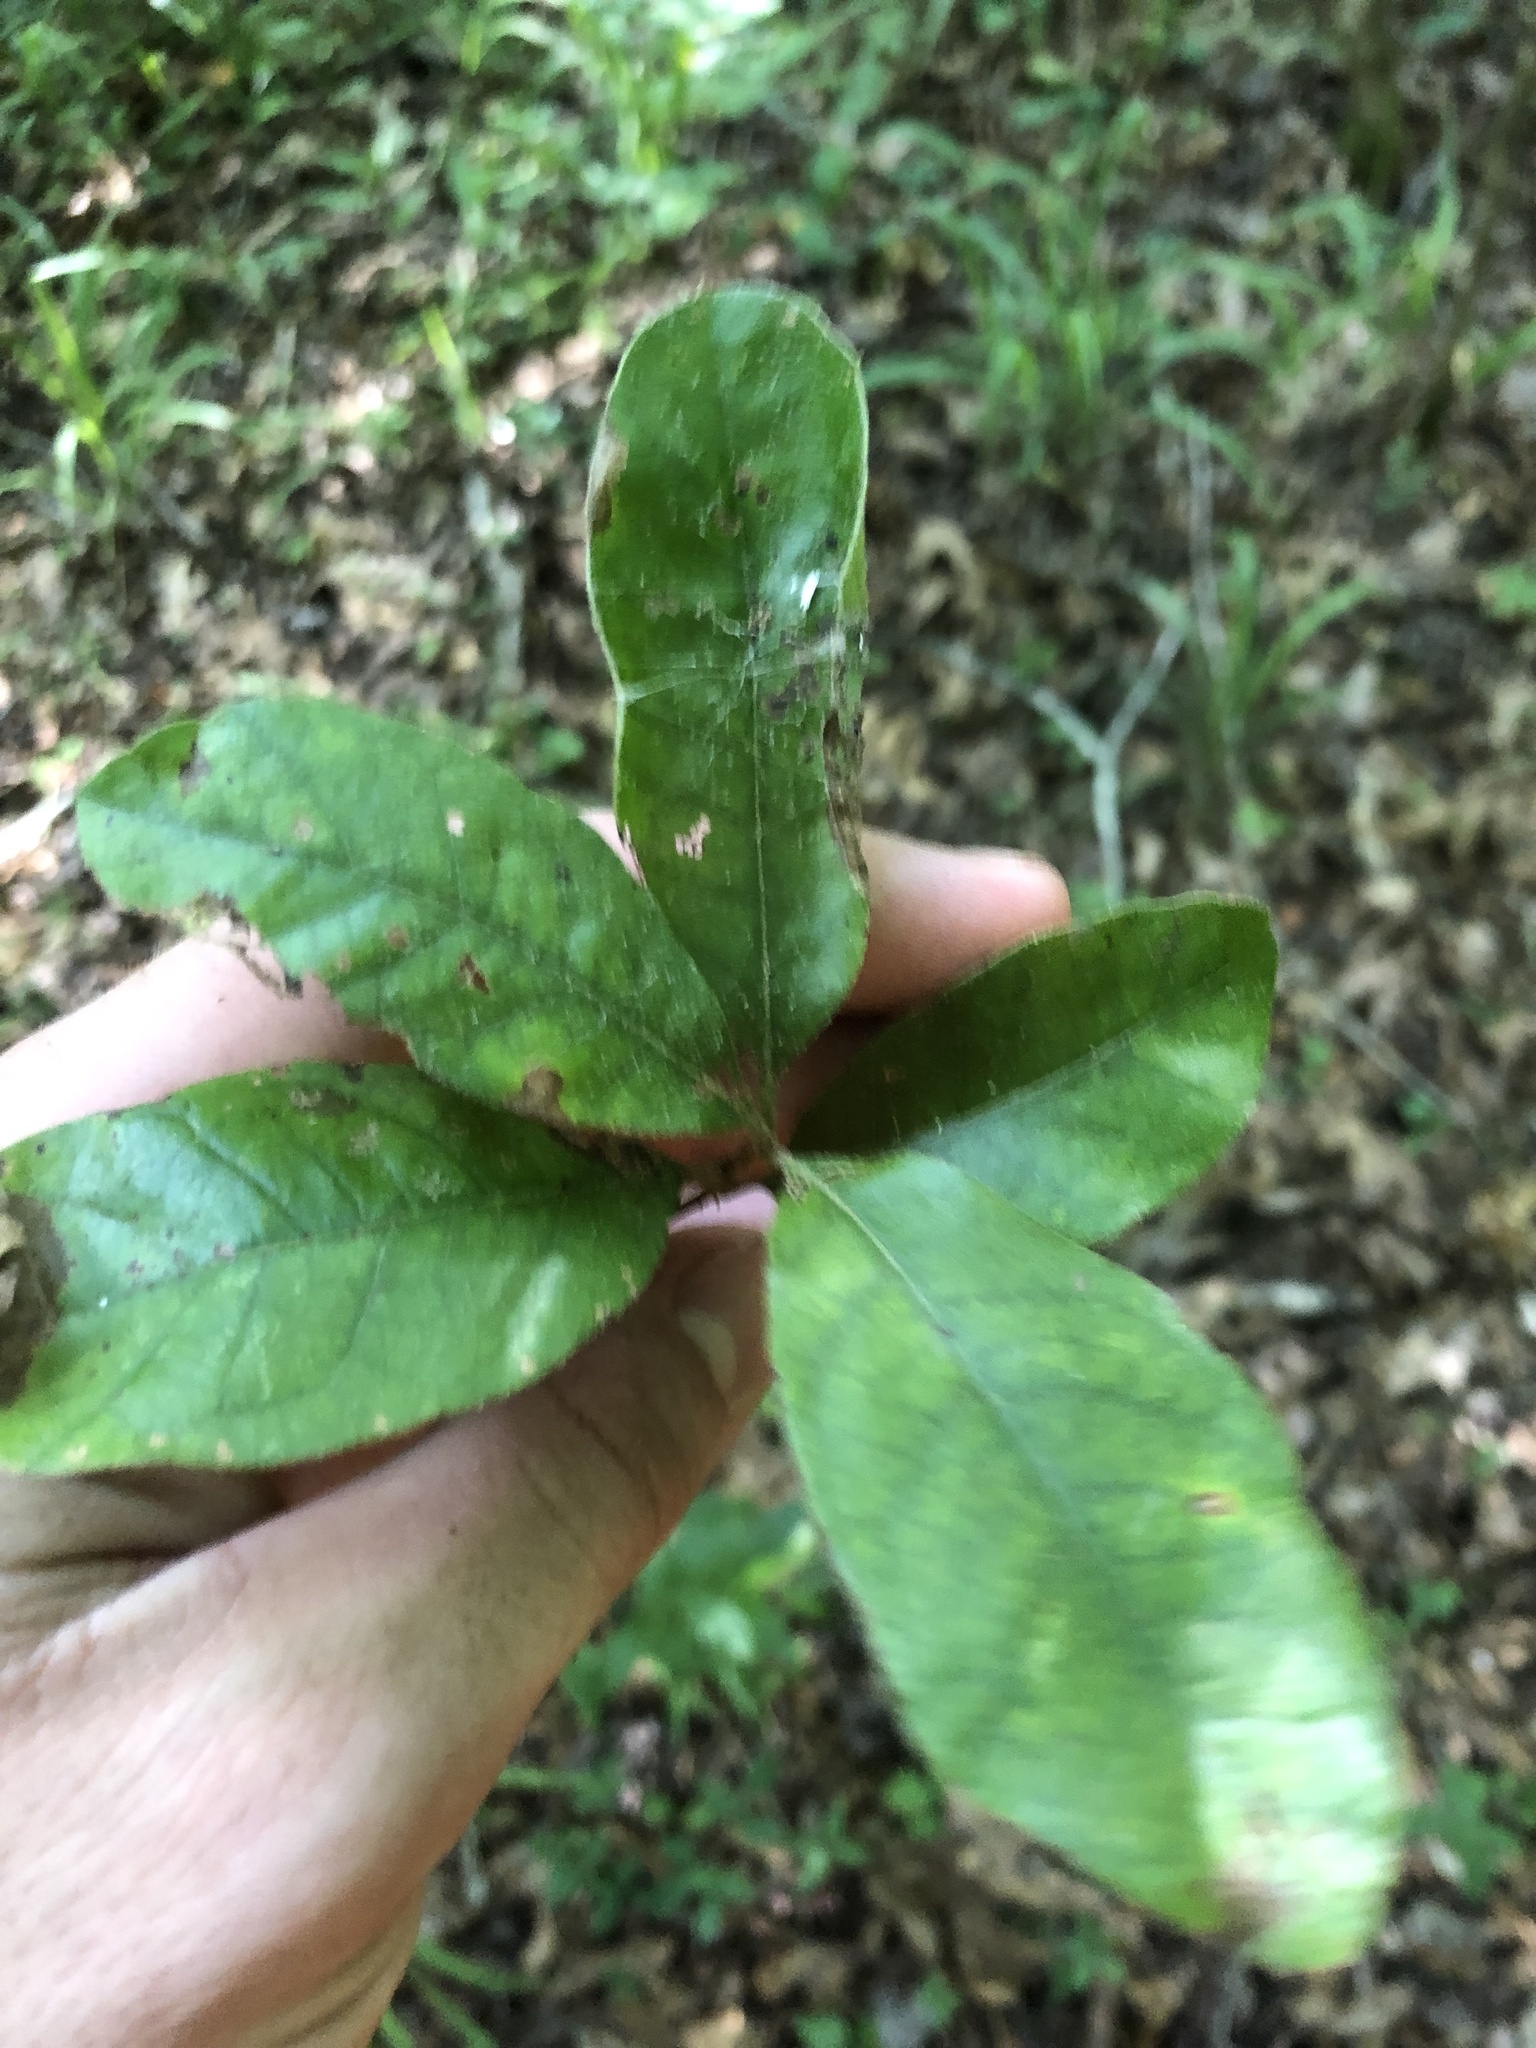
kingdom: Plantae
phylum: Tracheophyta
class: Magnoliopsida
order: Fagales
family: Fagaceae
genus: Quercus
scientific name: Quercus oglethorpensis
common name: Oglethorpe oak
